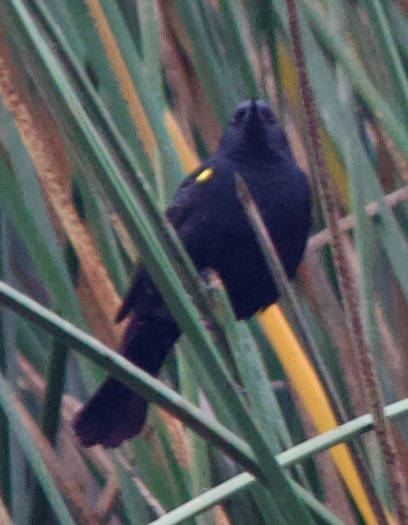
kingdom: Animalia
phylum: Chordata
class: Aves
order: Passeriformes
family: Icteridae
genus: Agelasticus
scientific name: Agelasticus thilius
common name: Yellow-winged blackbird
